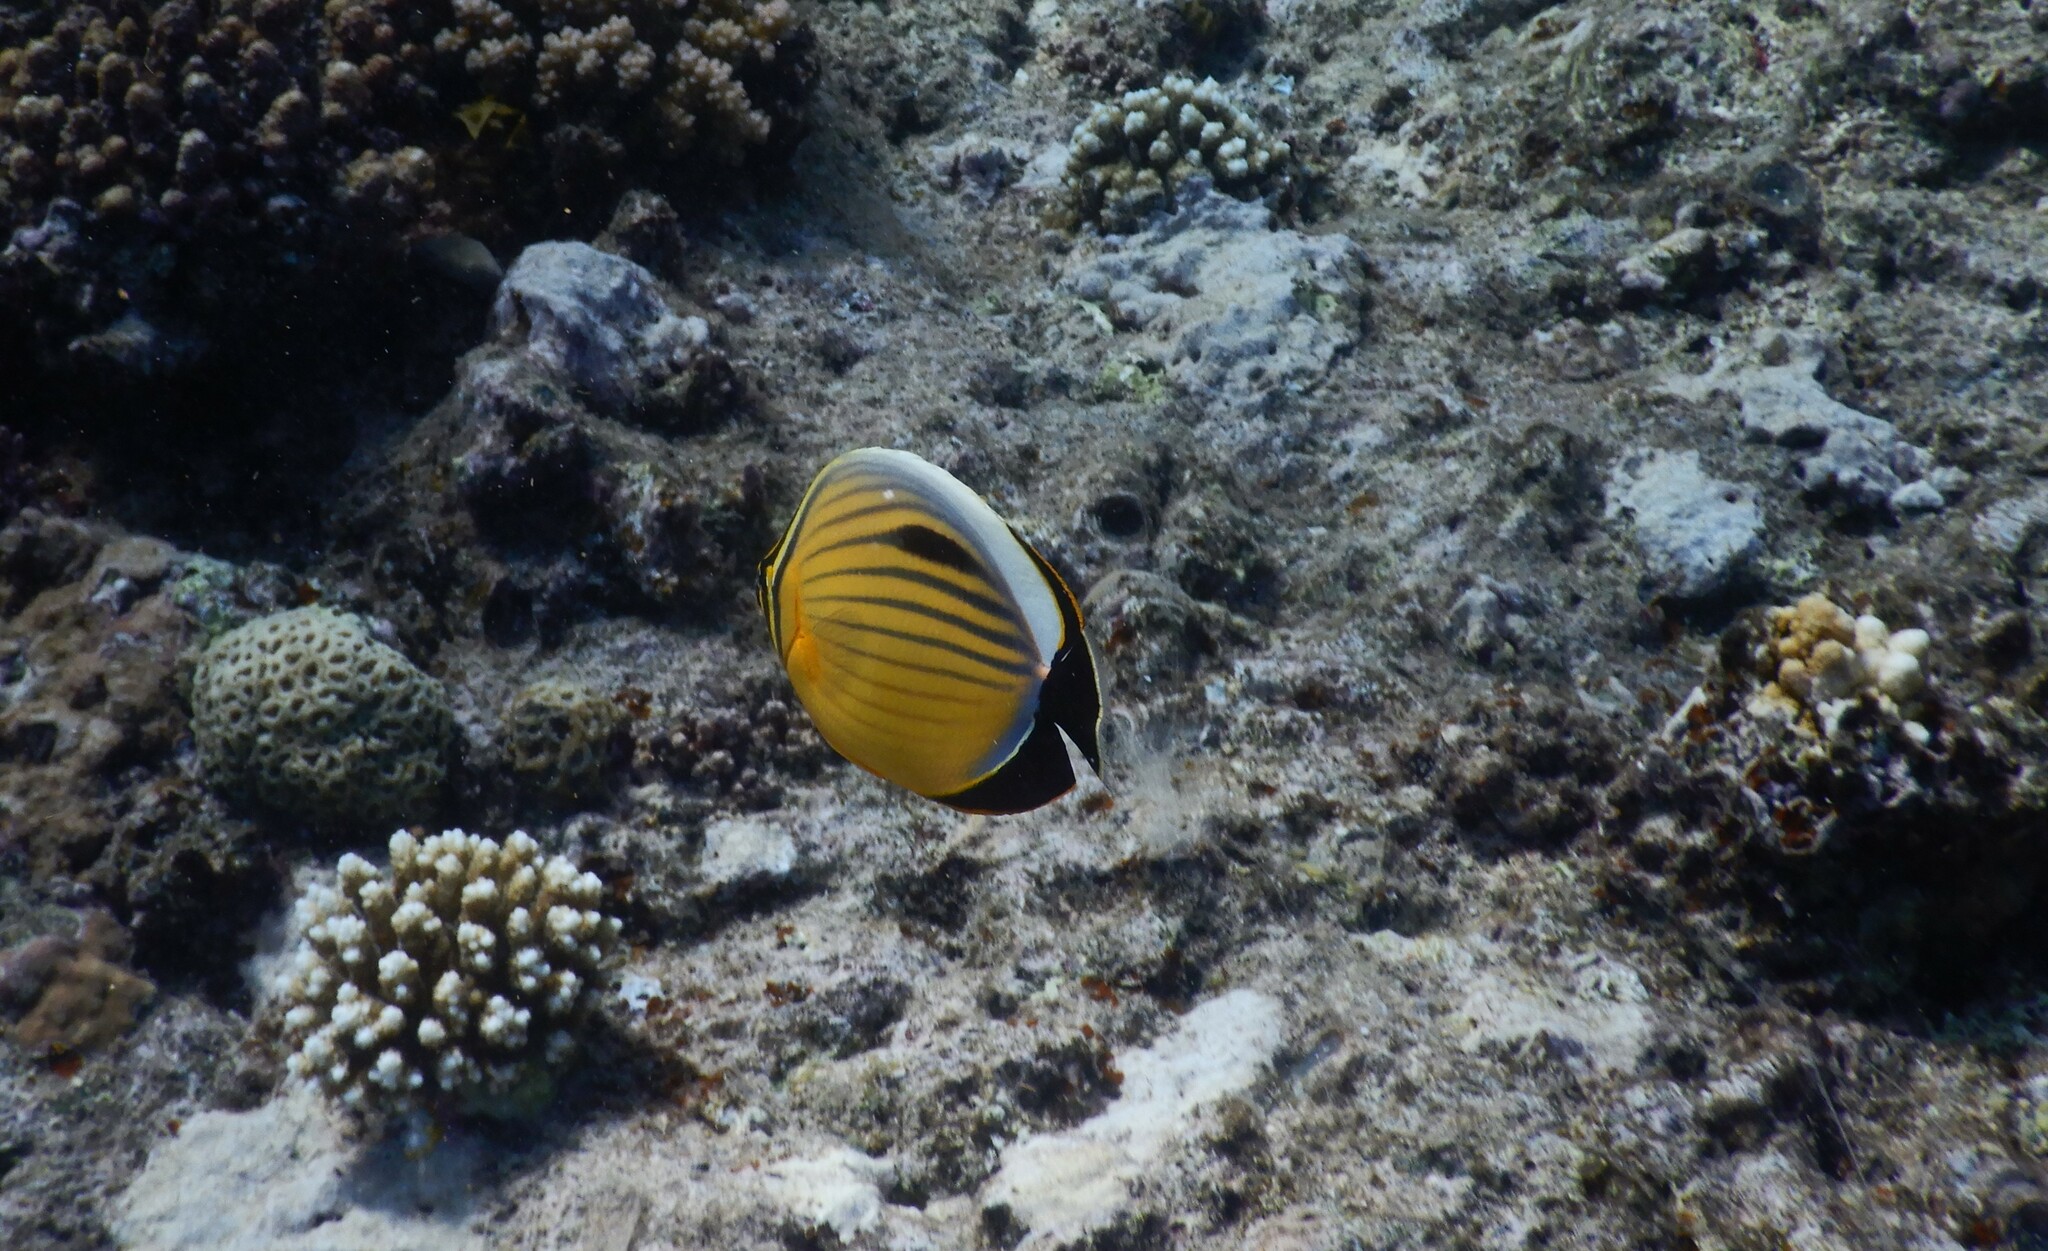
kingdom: Animalia
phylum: Chordata
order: Perciformes
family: Chaetodontidae
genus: Chaetodon
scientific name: Chaetodon austriacus
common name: Exquisite butterflyfish
